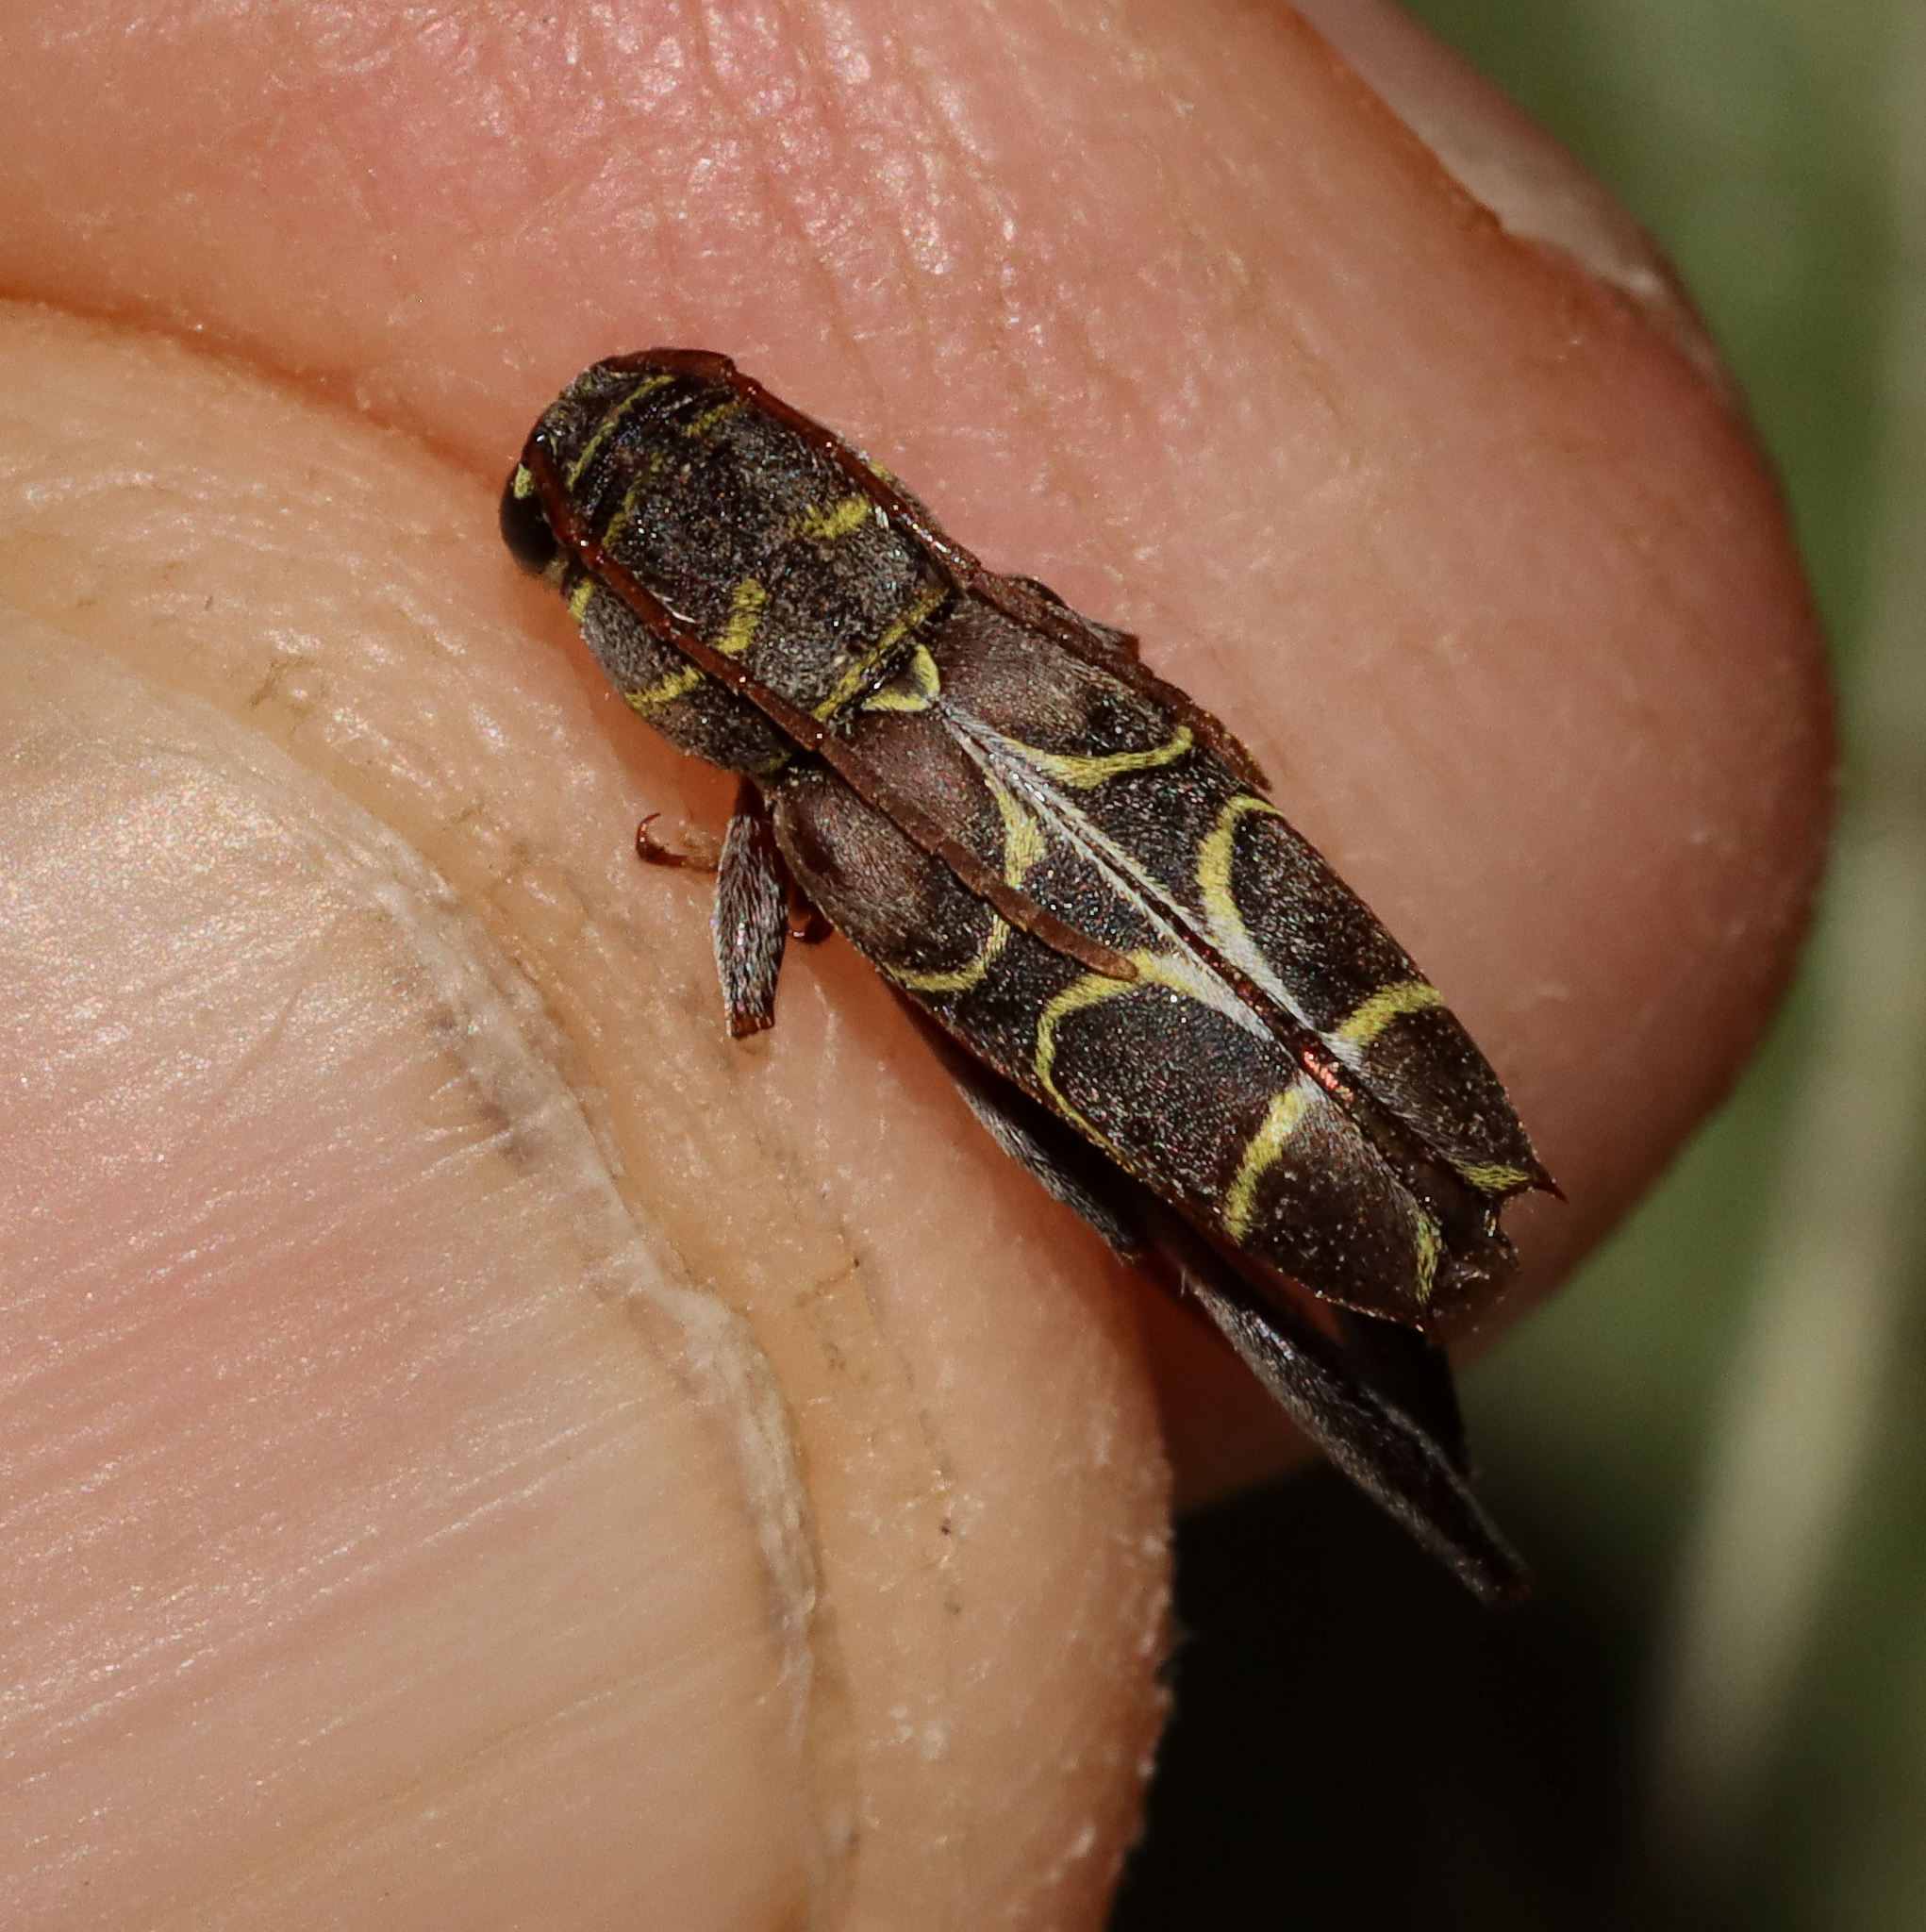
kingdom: Animalia
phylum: Arthropoda
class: Insecta
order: Coleoptera
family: Cerambycidae
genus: Neoclytus
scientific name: Neoclytus scutellaris
